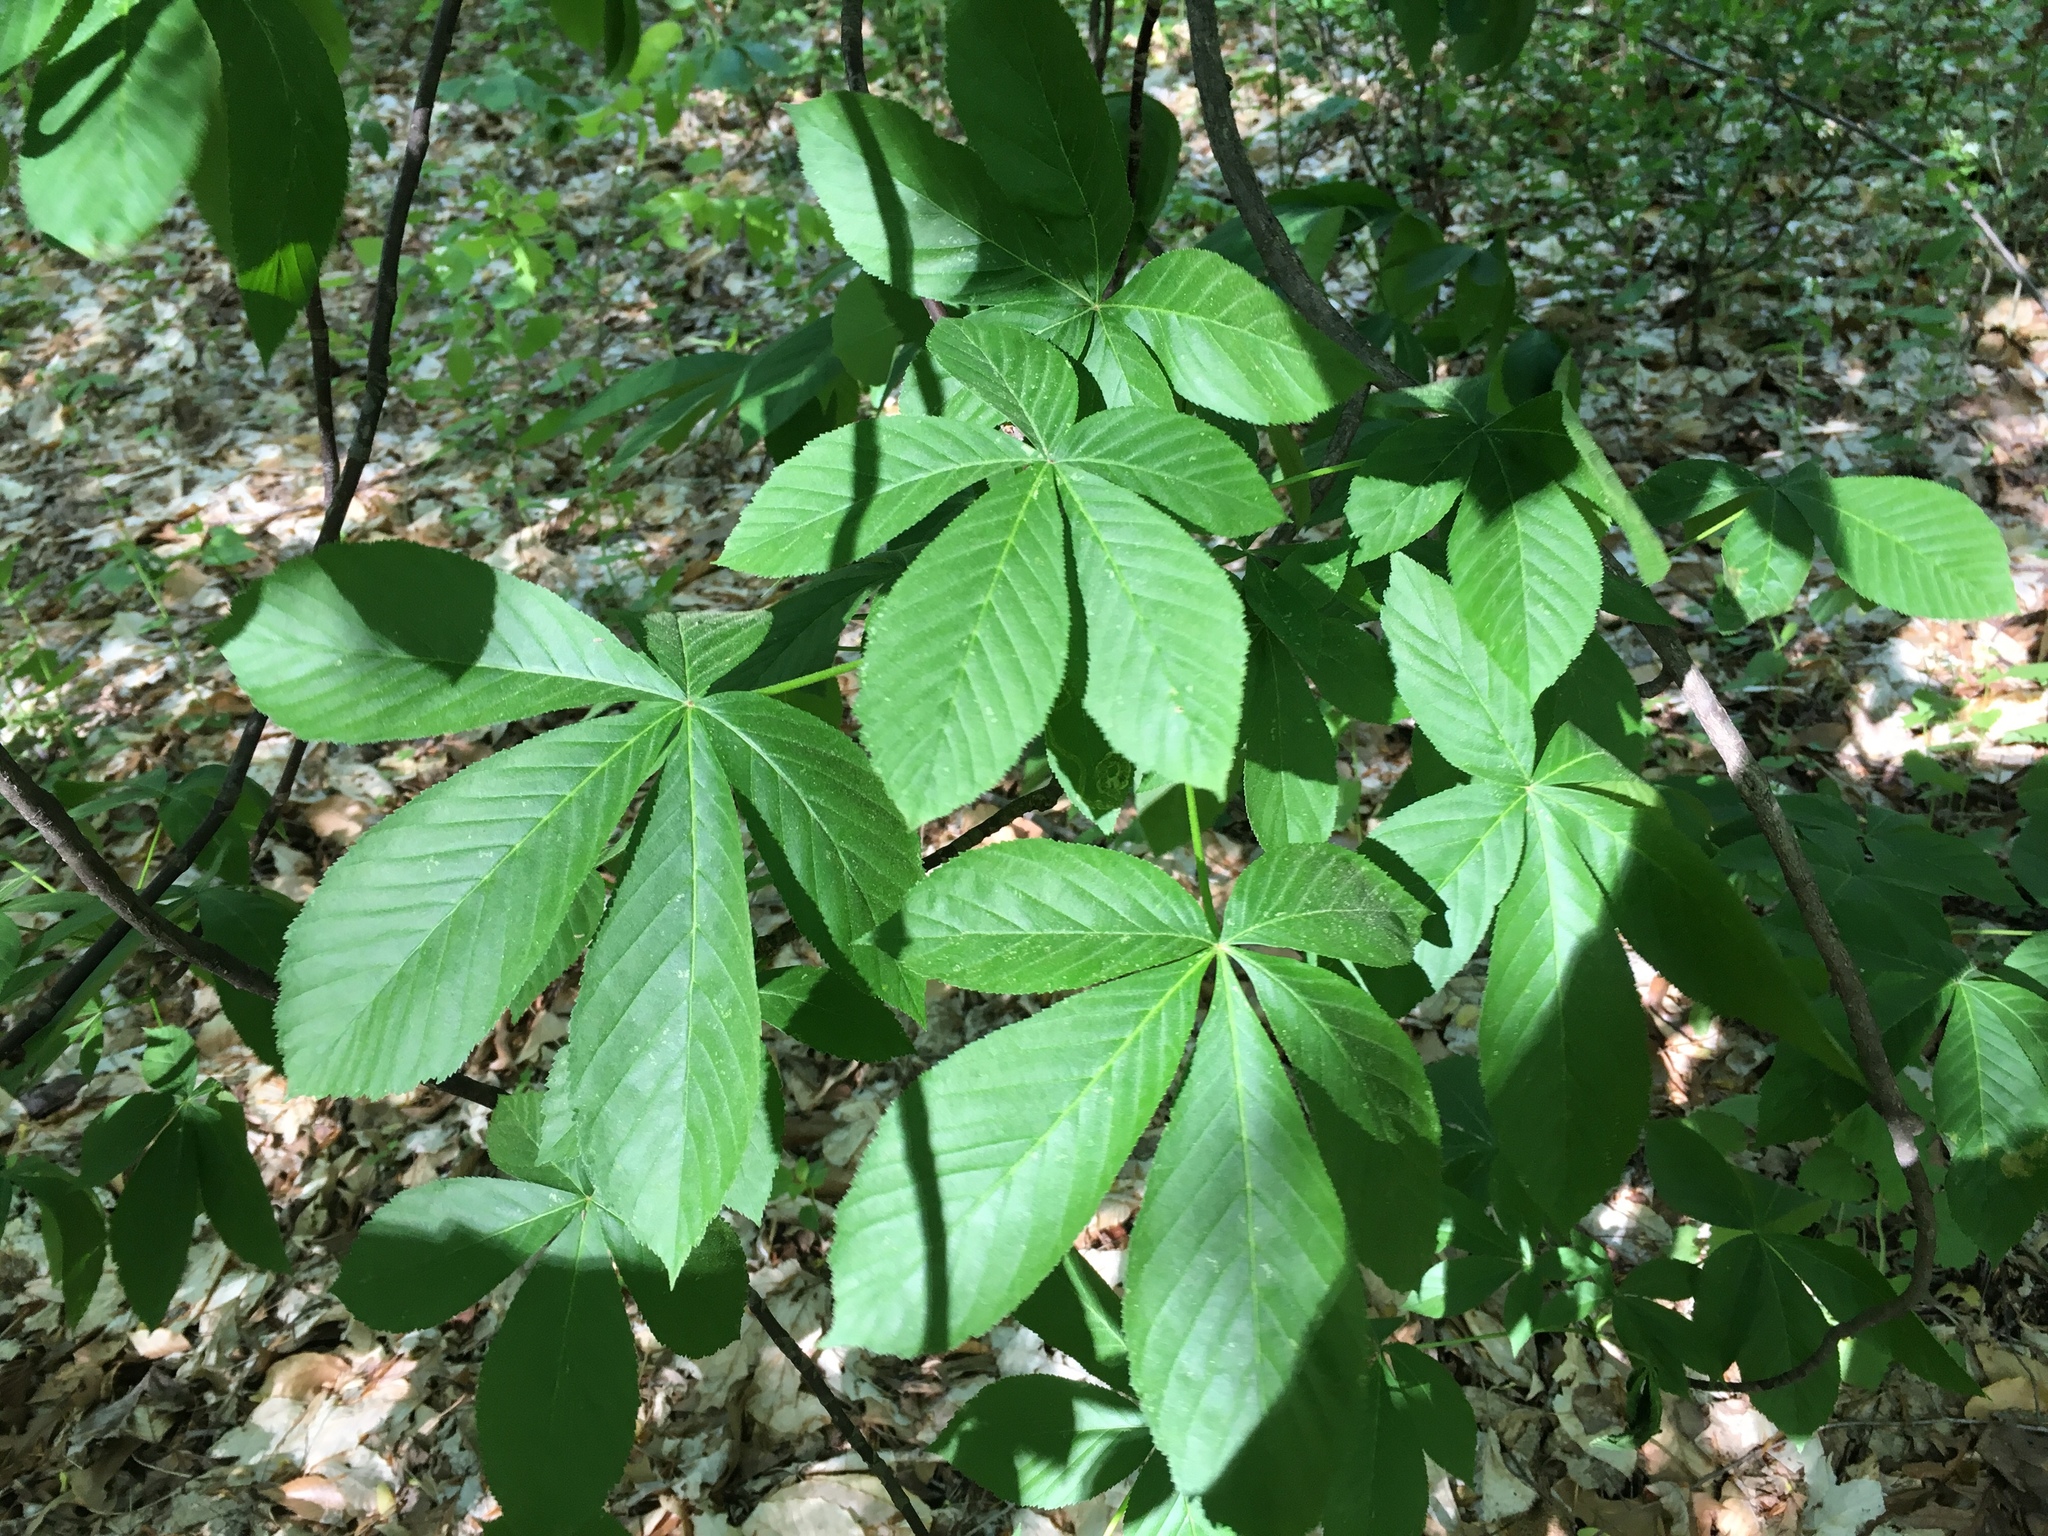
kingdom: Plantae
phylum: Tracheophyta
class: Magnoliopsida
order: Sapindales
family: Sapindaceae
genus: Aesculus
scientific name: Aesculus glabra
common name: Ohio buckeye
